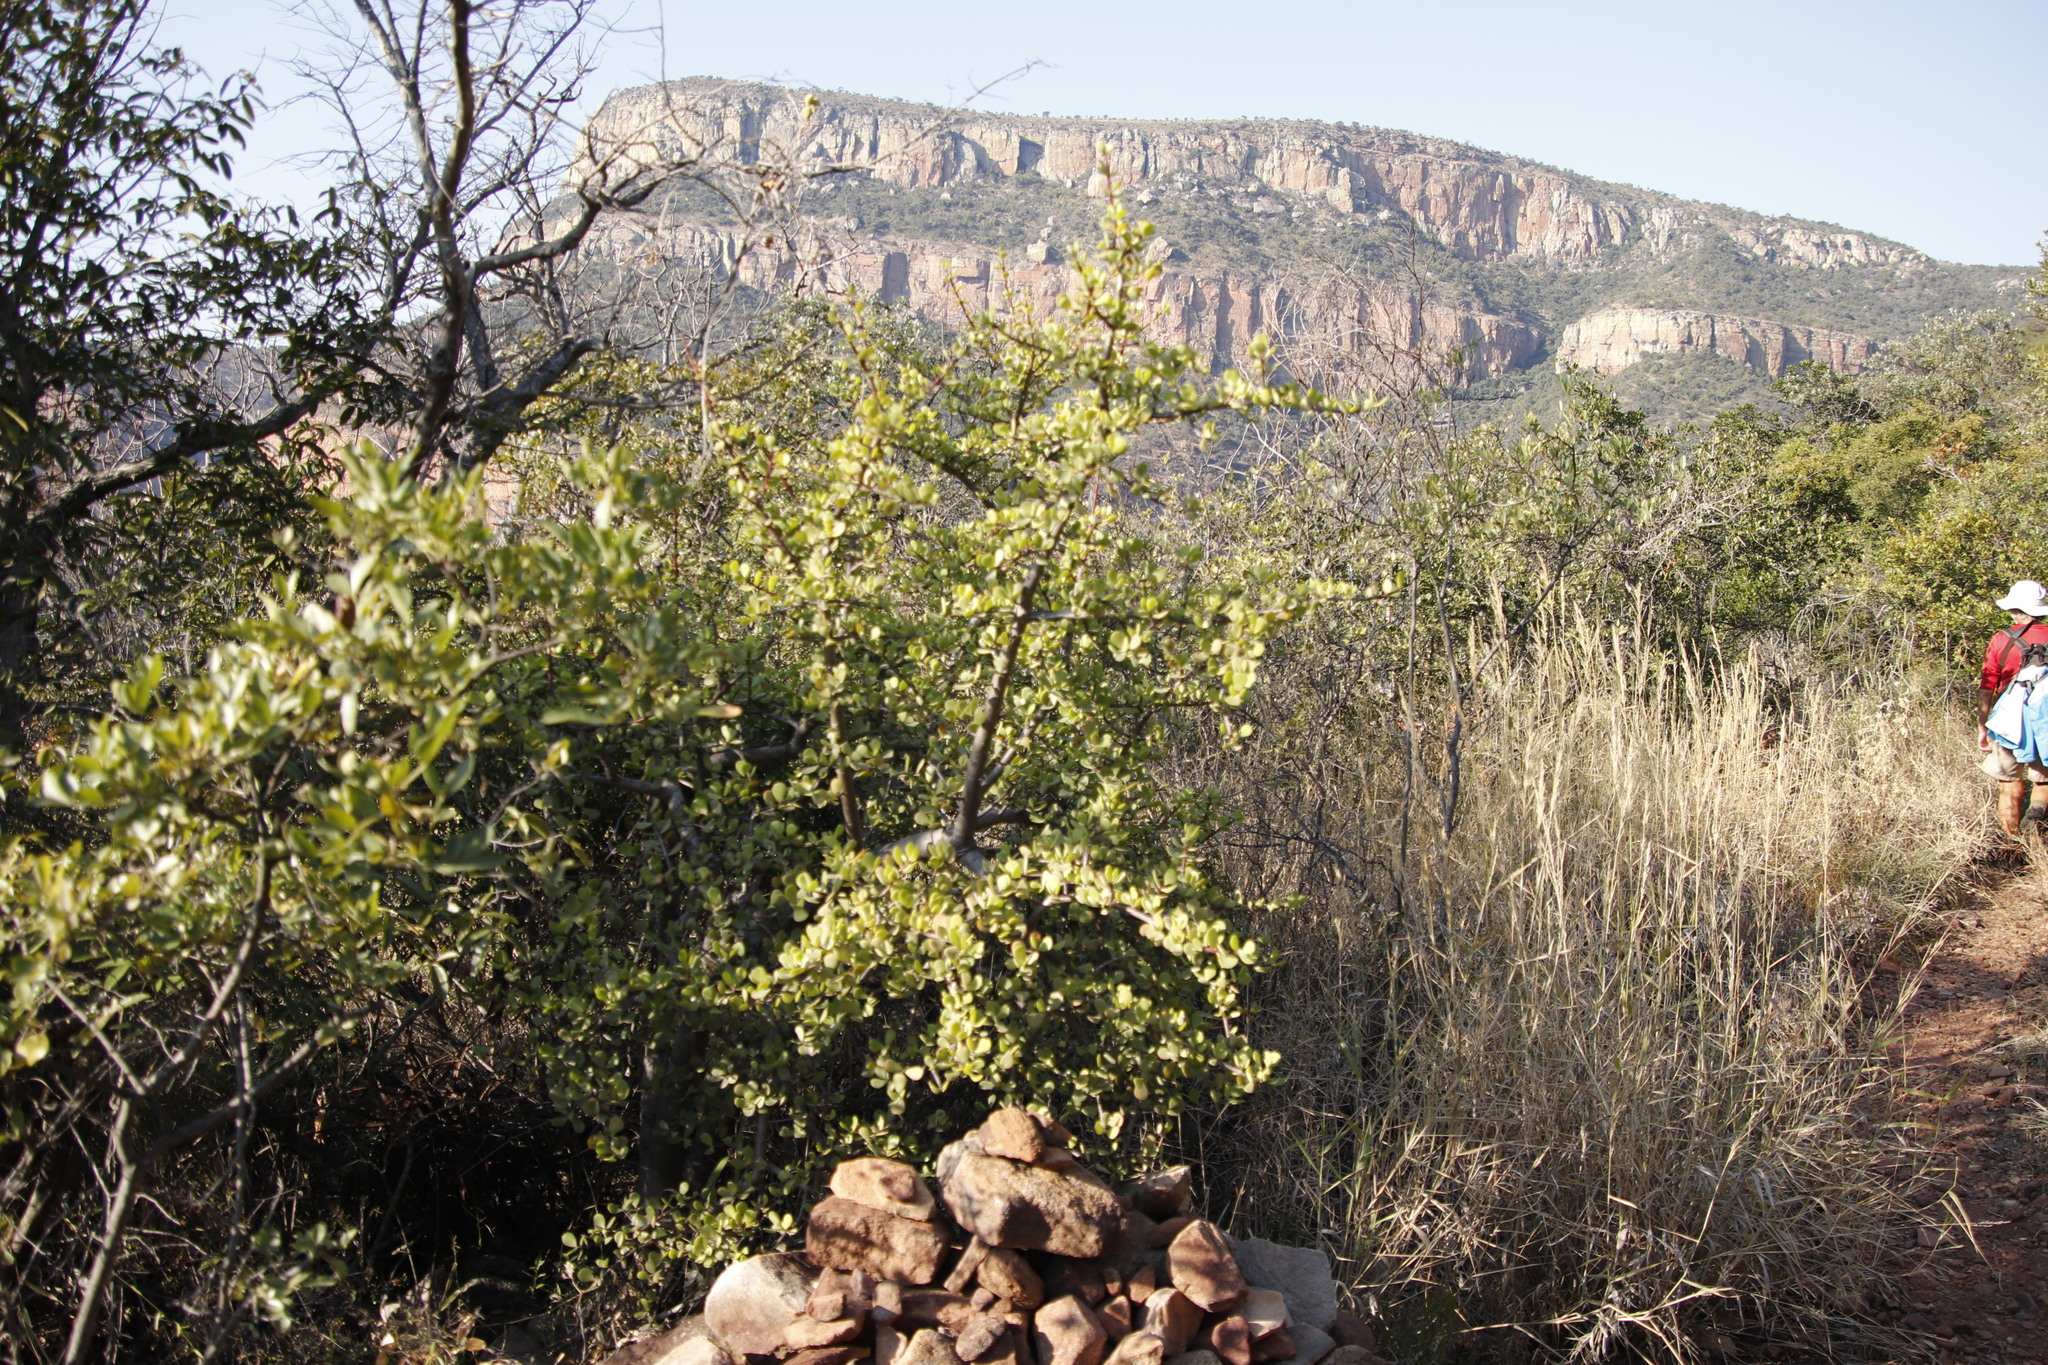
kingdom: Plantae
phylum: Tracheophyta
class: Magnoliopsida
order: Caryophyllales
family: Didiereaceae
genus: Portulacaria
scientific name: Portulacaria afra
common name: Elephant-bush
